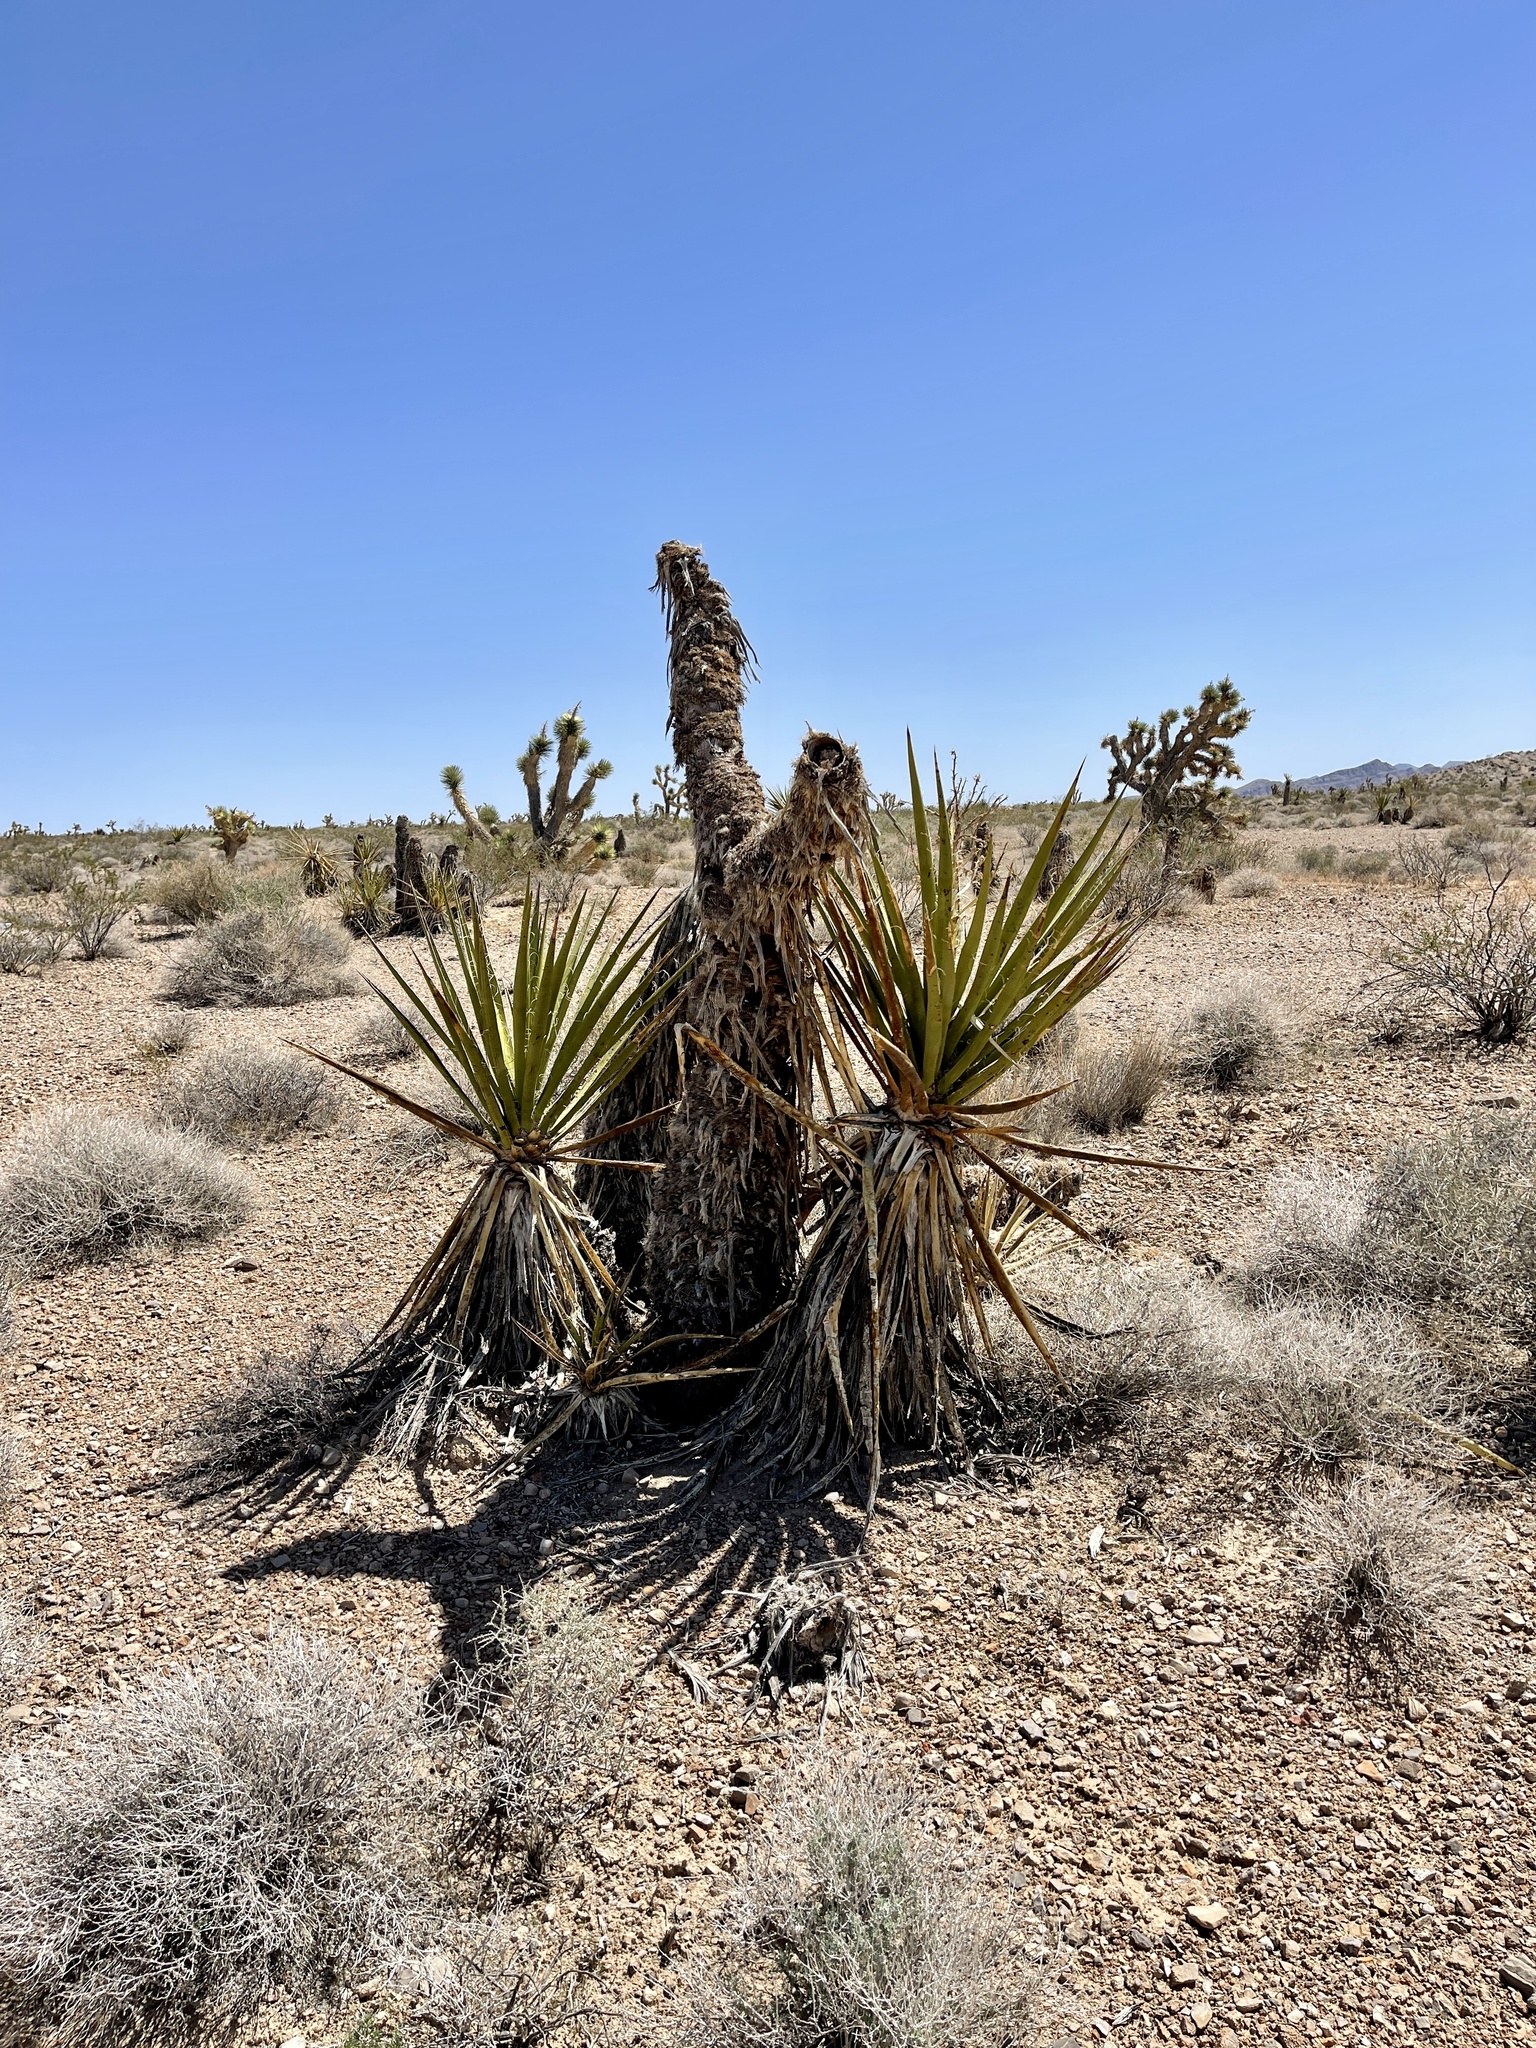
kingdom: Plantae
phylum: Tracheophyta
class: Liliopsida
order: Asparagales
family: Asparagaceae
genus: Yucca
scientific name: Yucca schidigera
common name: Mojave yucca
